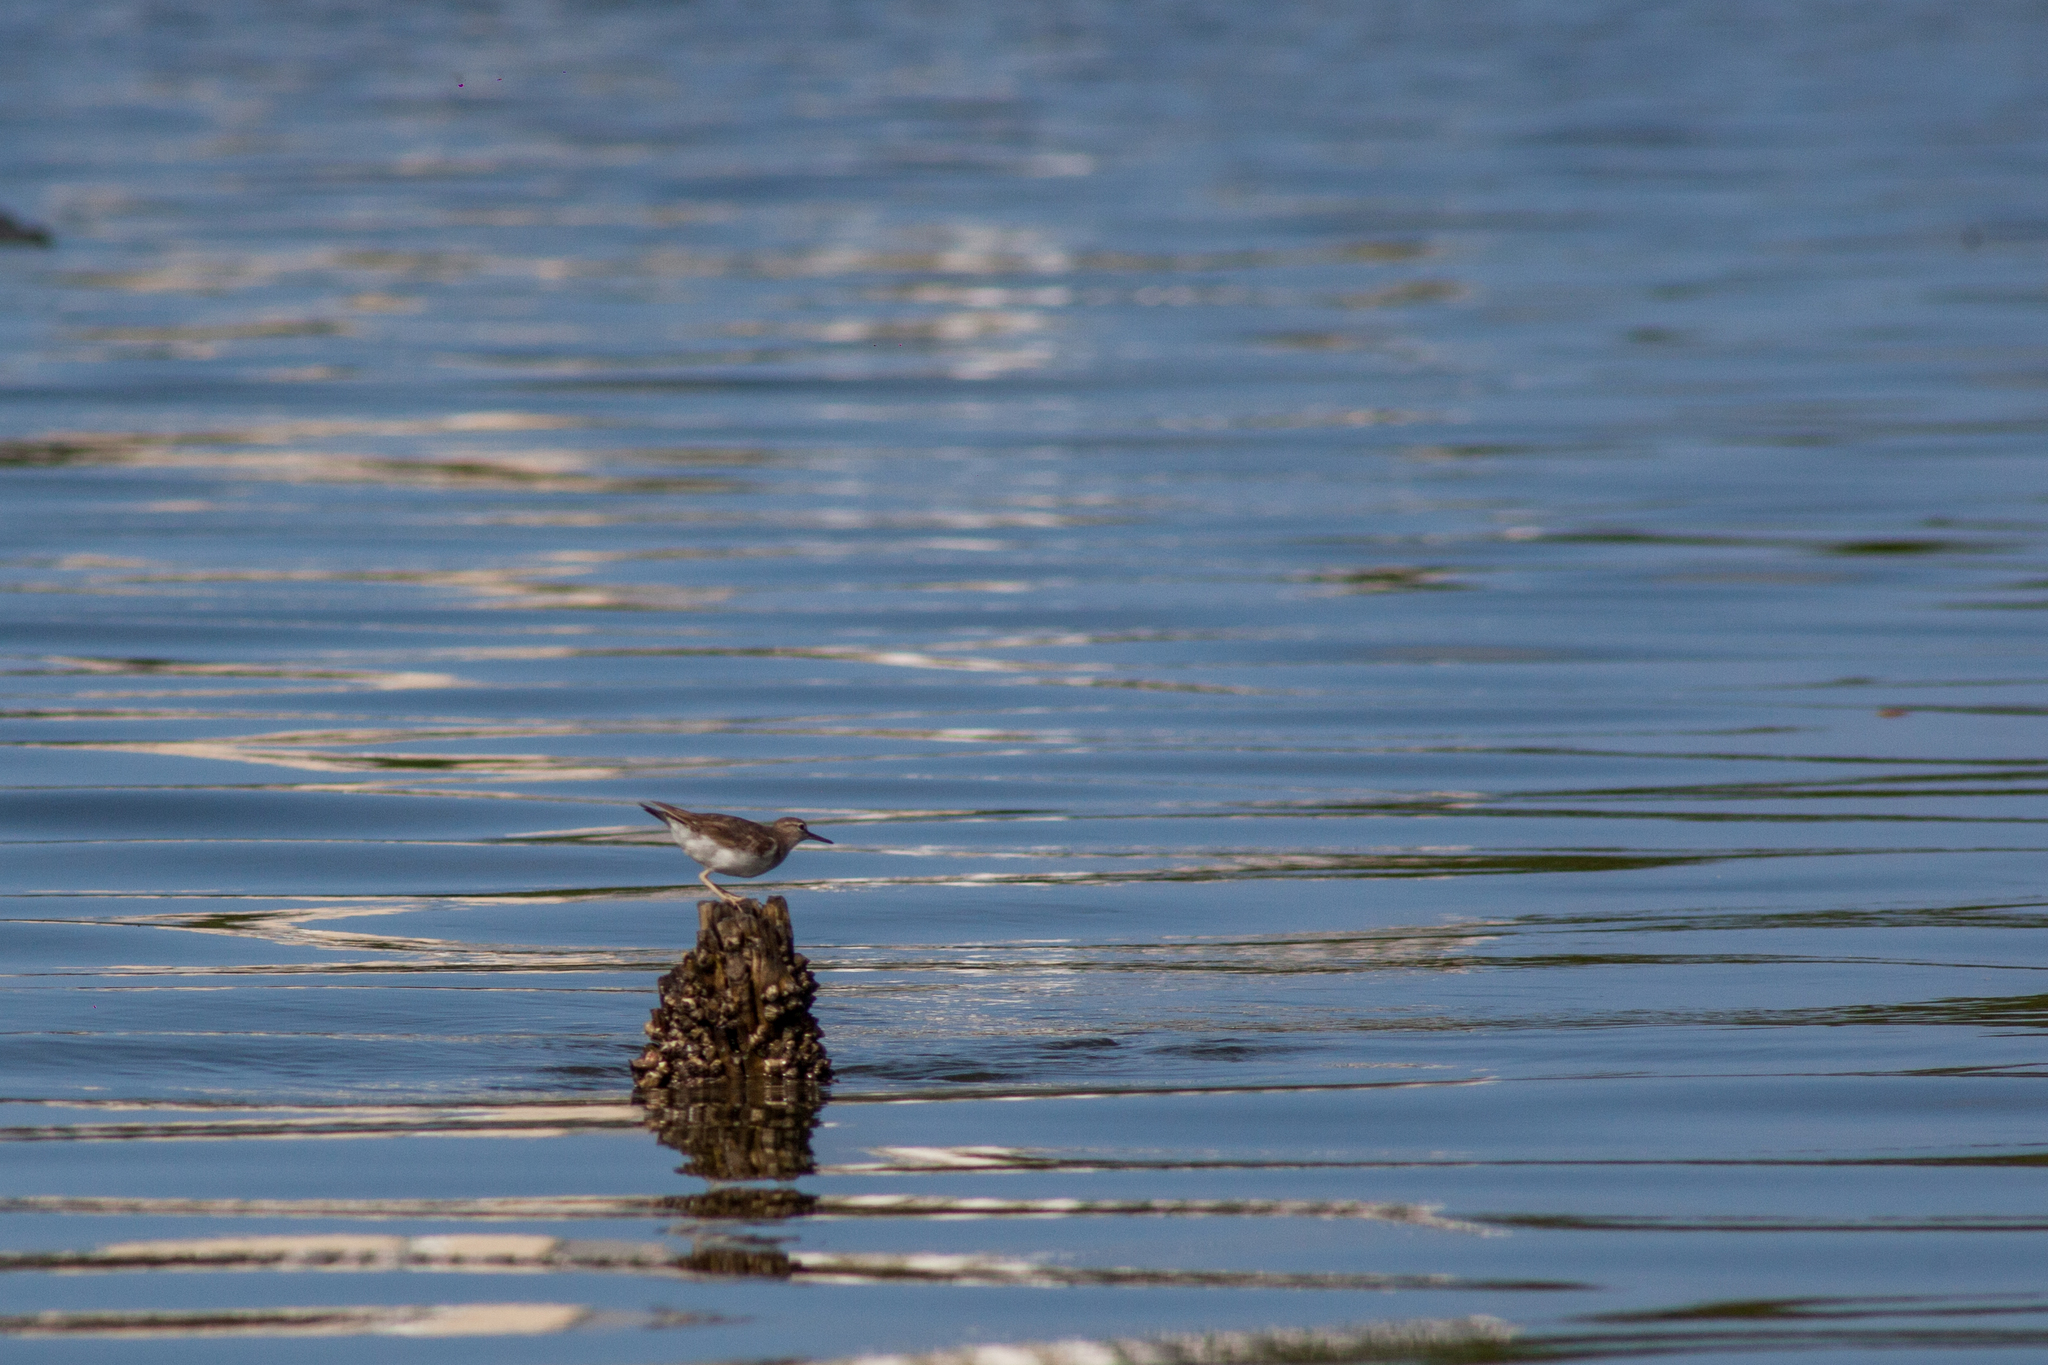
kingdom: Animalia
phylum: Chordata
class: Aves
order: Charadriiformes
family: Scolopacidae
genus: Actitis
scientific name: Actitis macularius
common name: Spotted sandpiper
